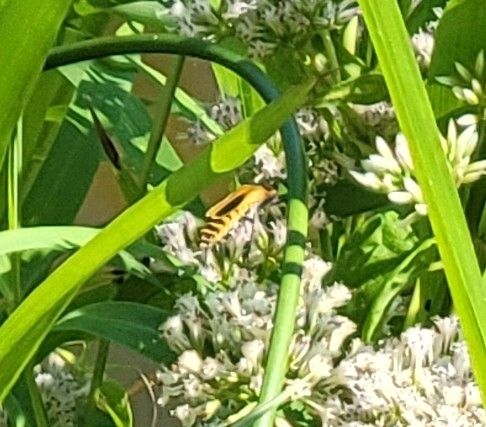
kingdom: Animalia
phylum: Arthropoda
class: Insecta
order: Coleoptera
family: Cantharidae
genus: Chauliognathus
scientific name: Chauliognathus pensylvanicus
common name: Goldenrod soldier beetle
